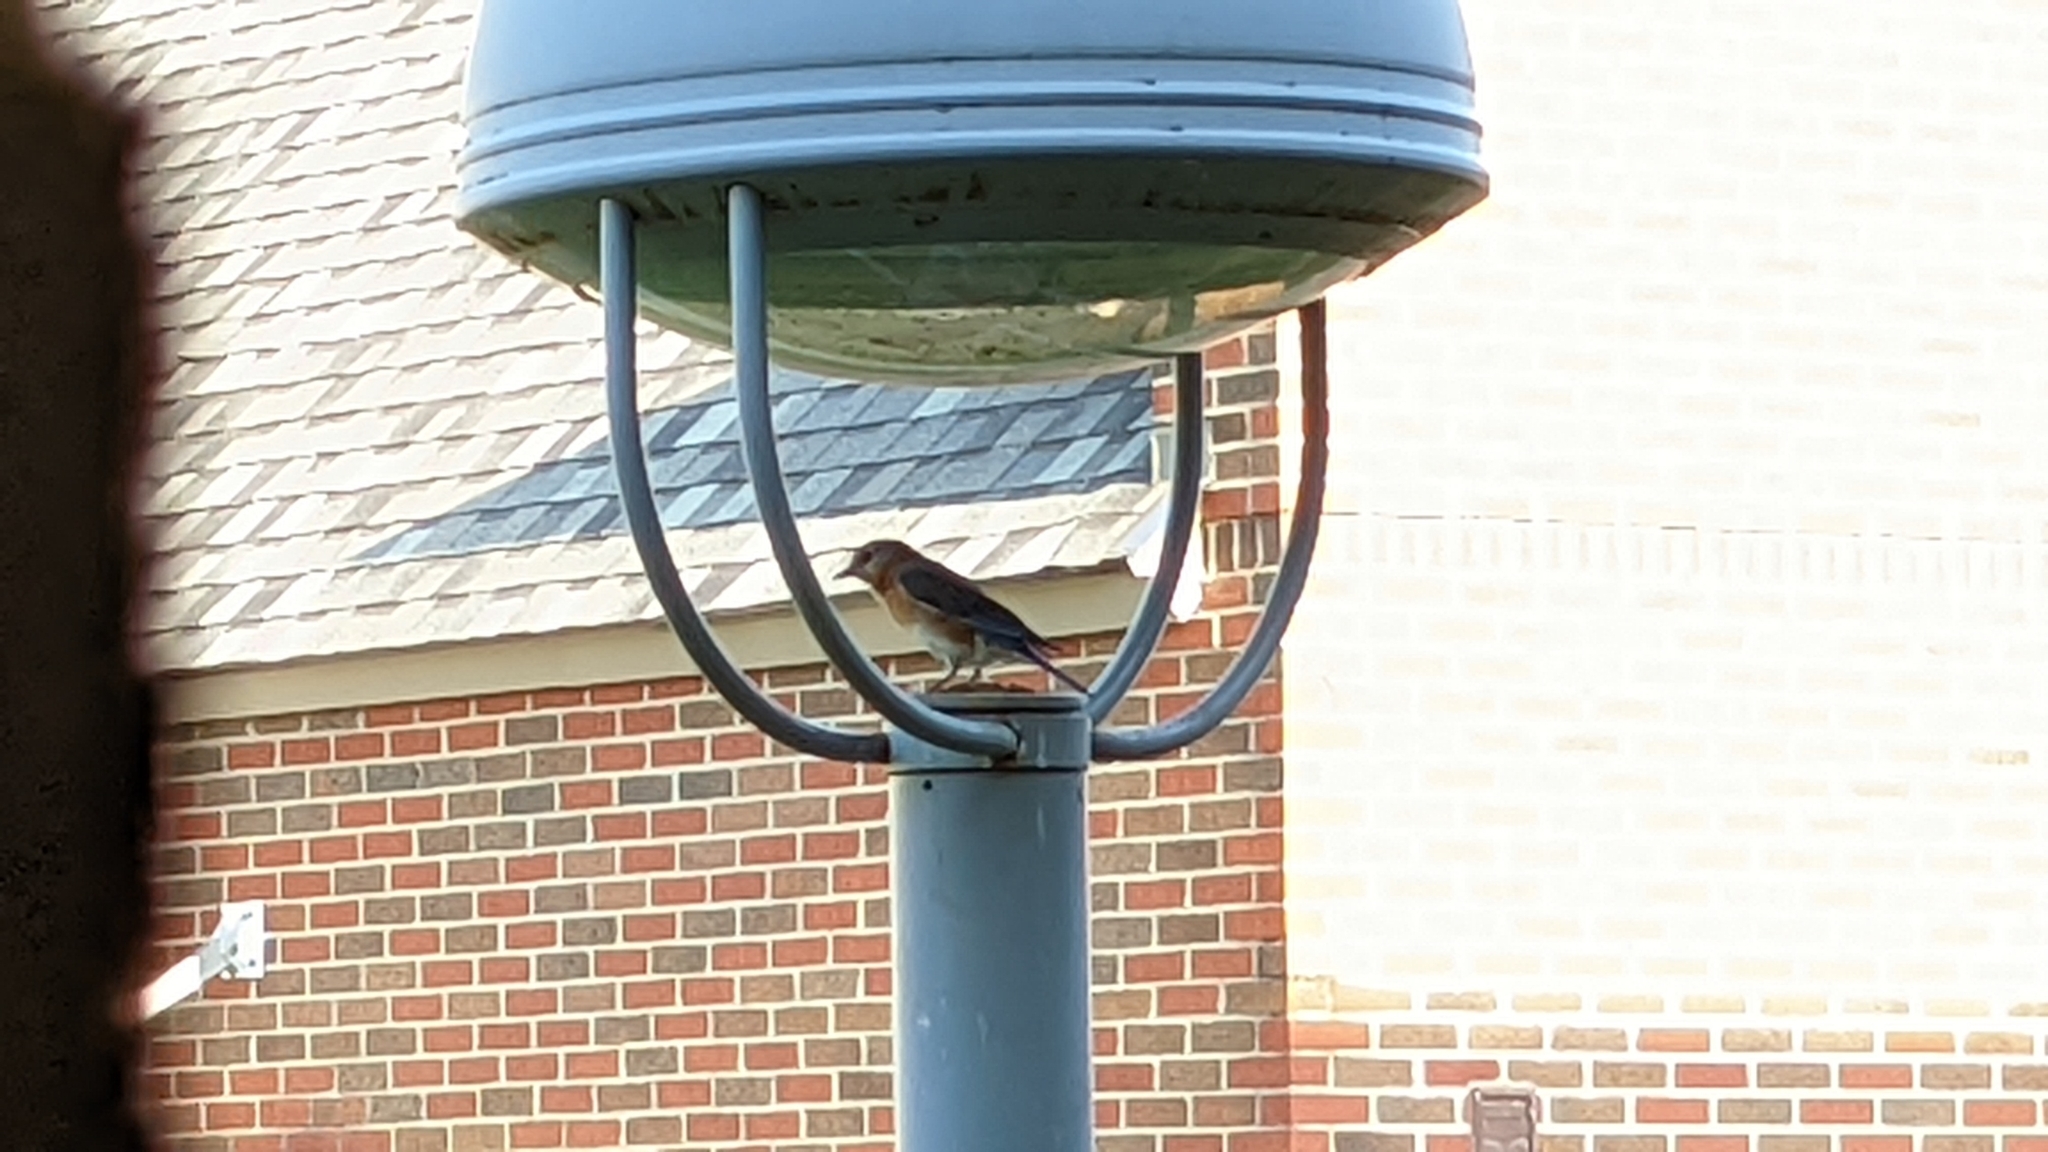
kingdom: Animalia
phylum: Chordata
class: Aves
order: Passeriformes
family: Turdidae
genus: Sialia
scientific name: Sialia sialis
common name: Eastern bluebird
